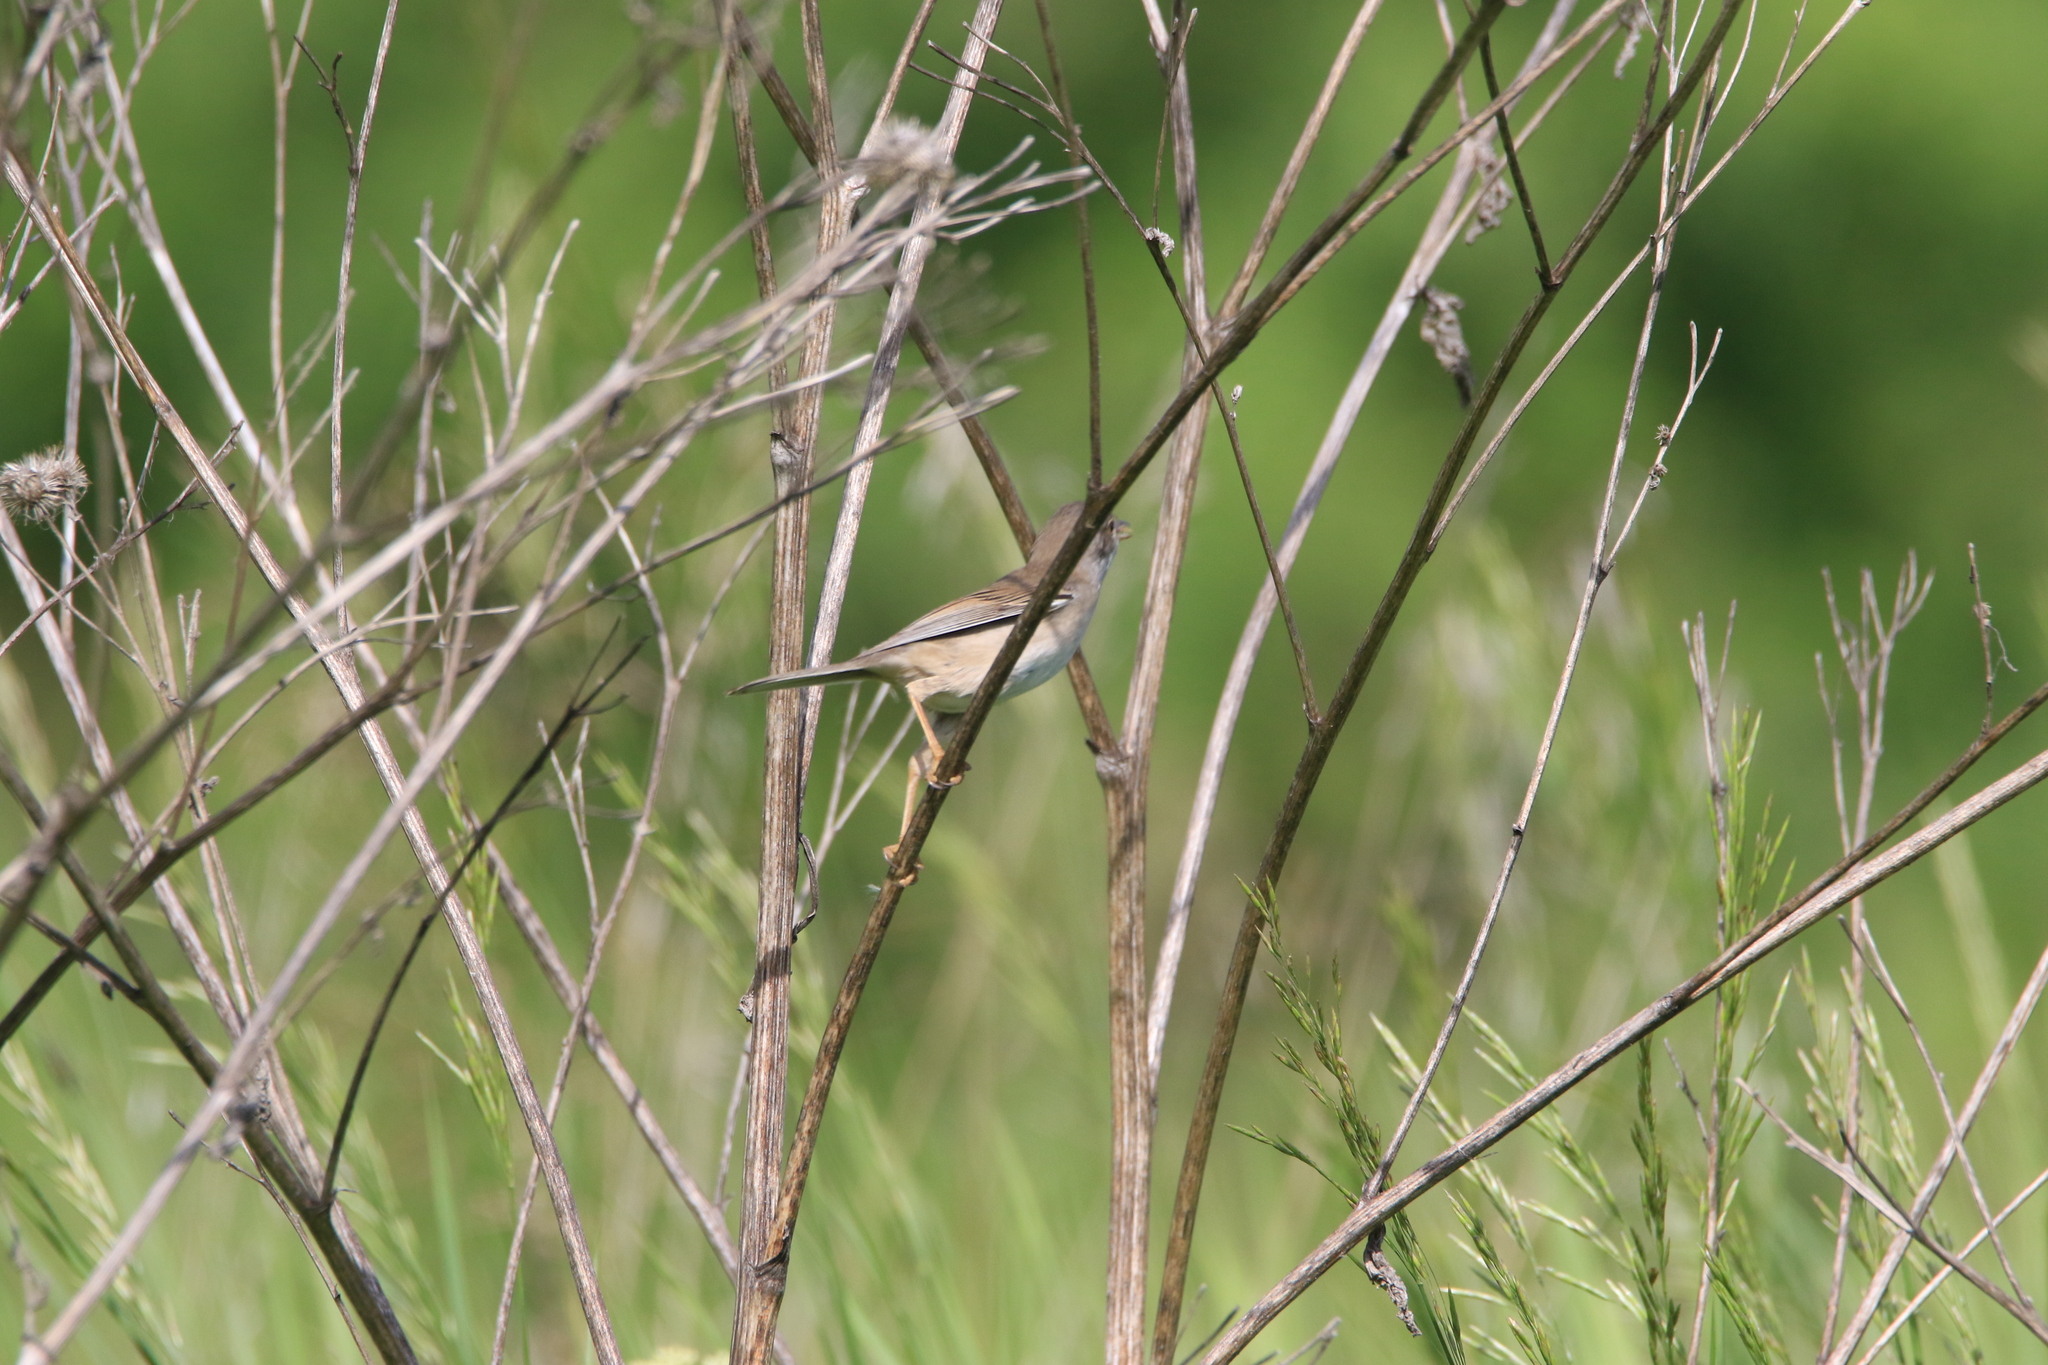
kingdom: Animalia
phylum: Chordata
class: Aves
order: Passeriformes
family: Sylviidae
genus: Sylvia
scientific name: Sylvia communis
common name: Common whitethroat
